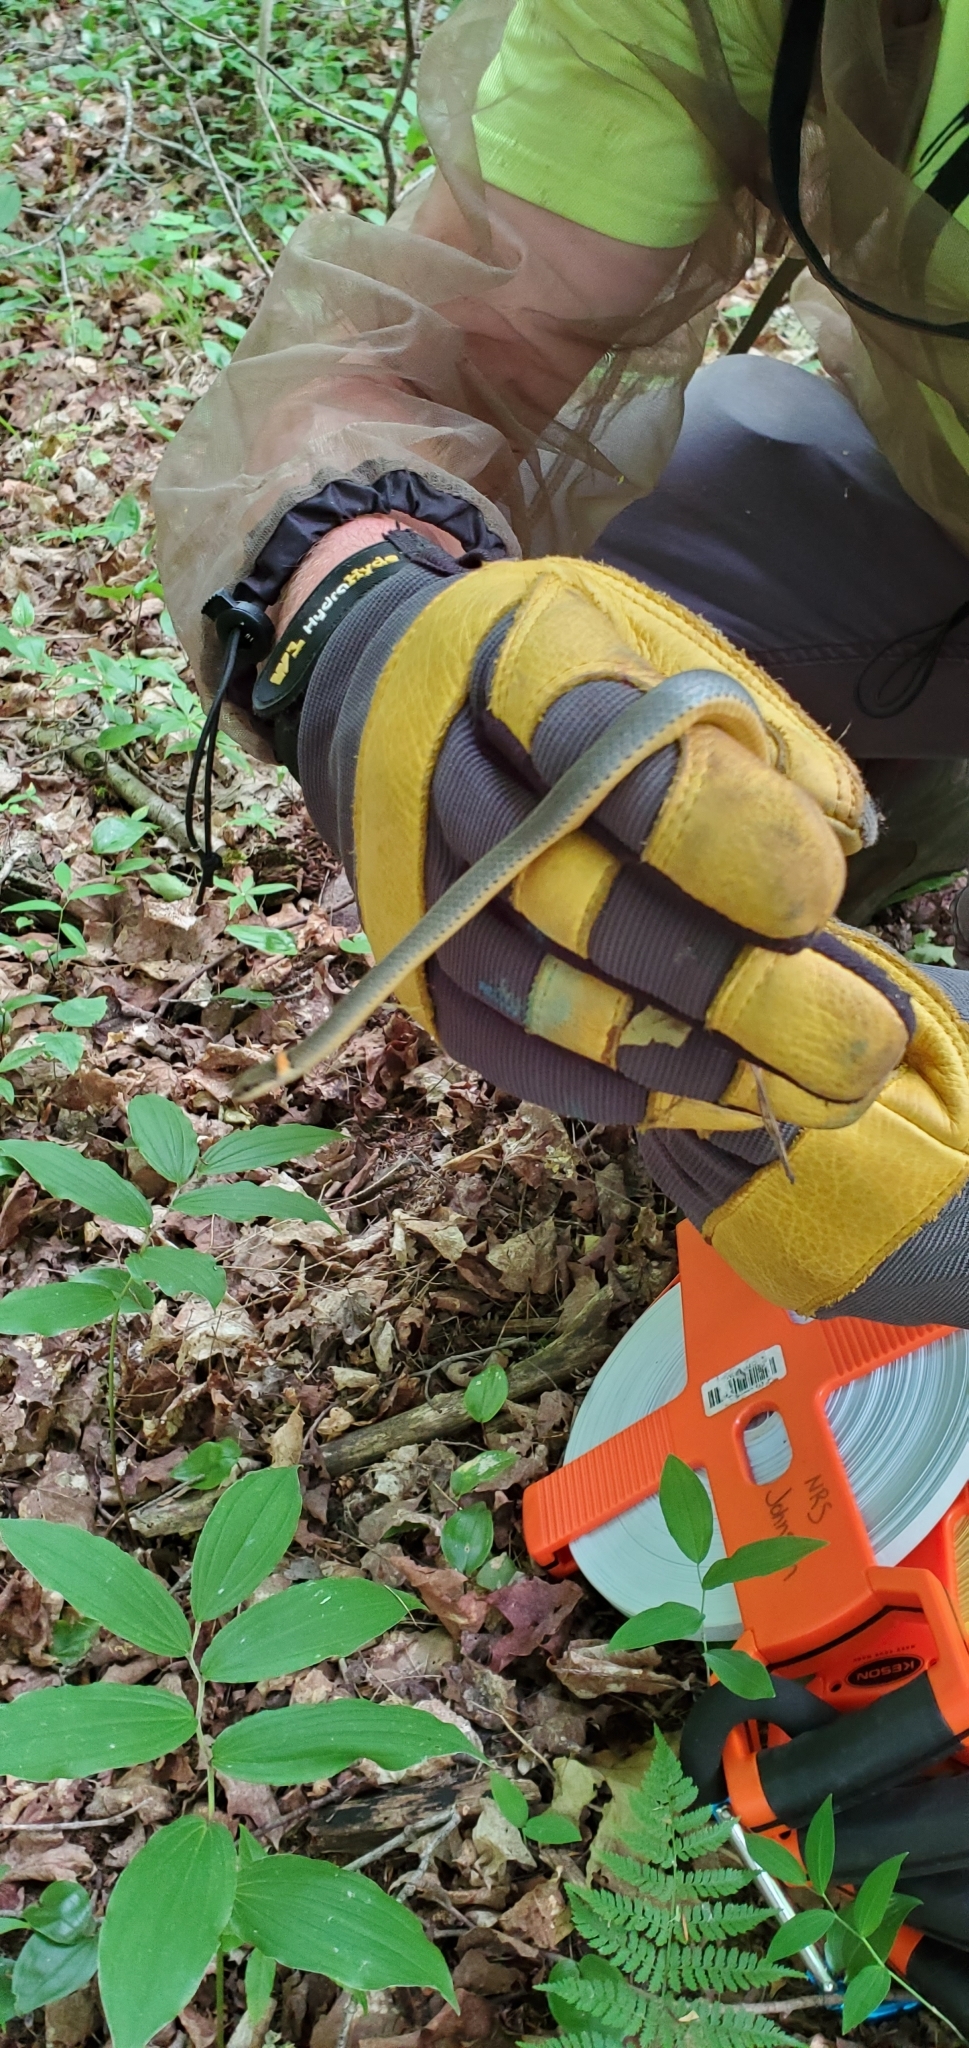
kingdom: Animalia
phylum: Chordata
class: Squamata
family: Colubridae
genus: Diadophis
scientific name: Diadophis punctatus
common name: Ringneck snake
